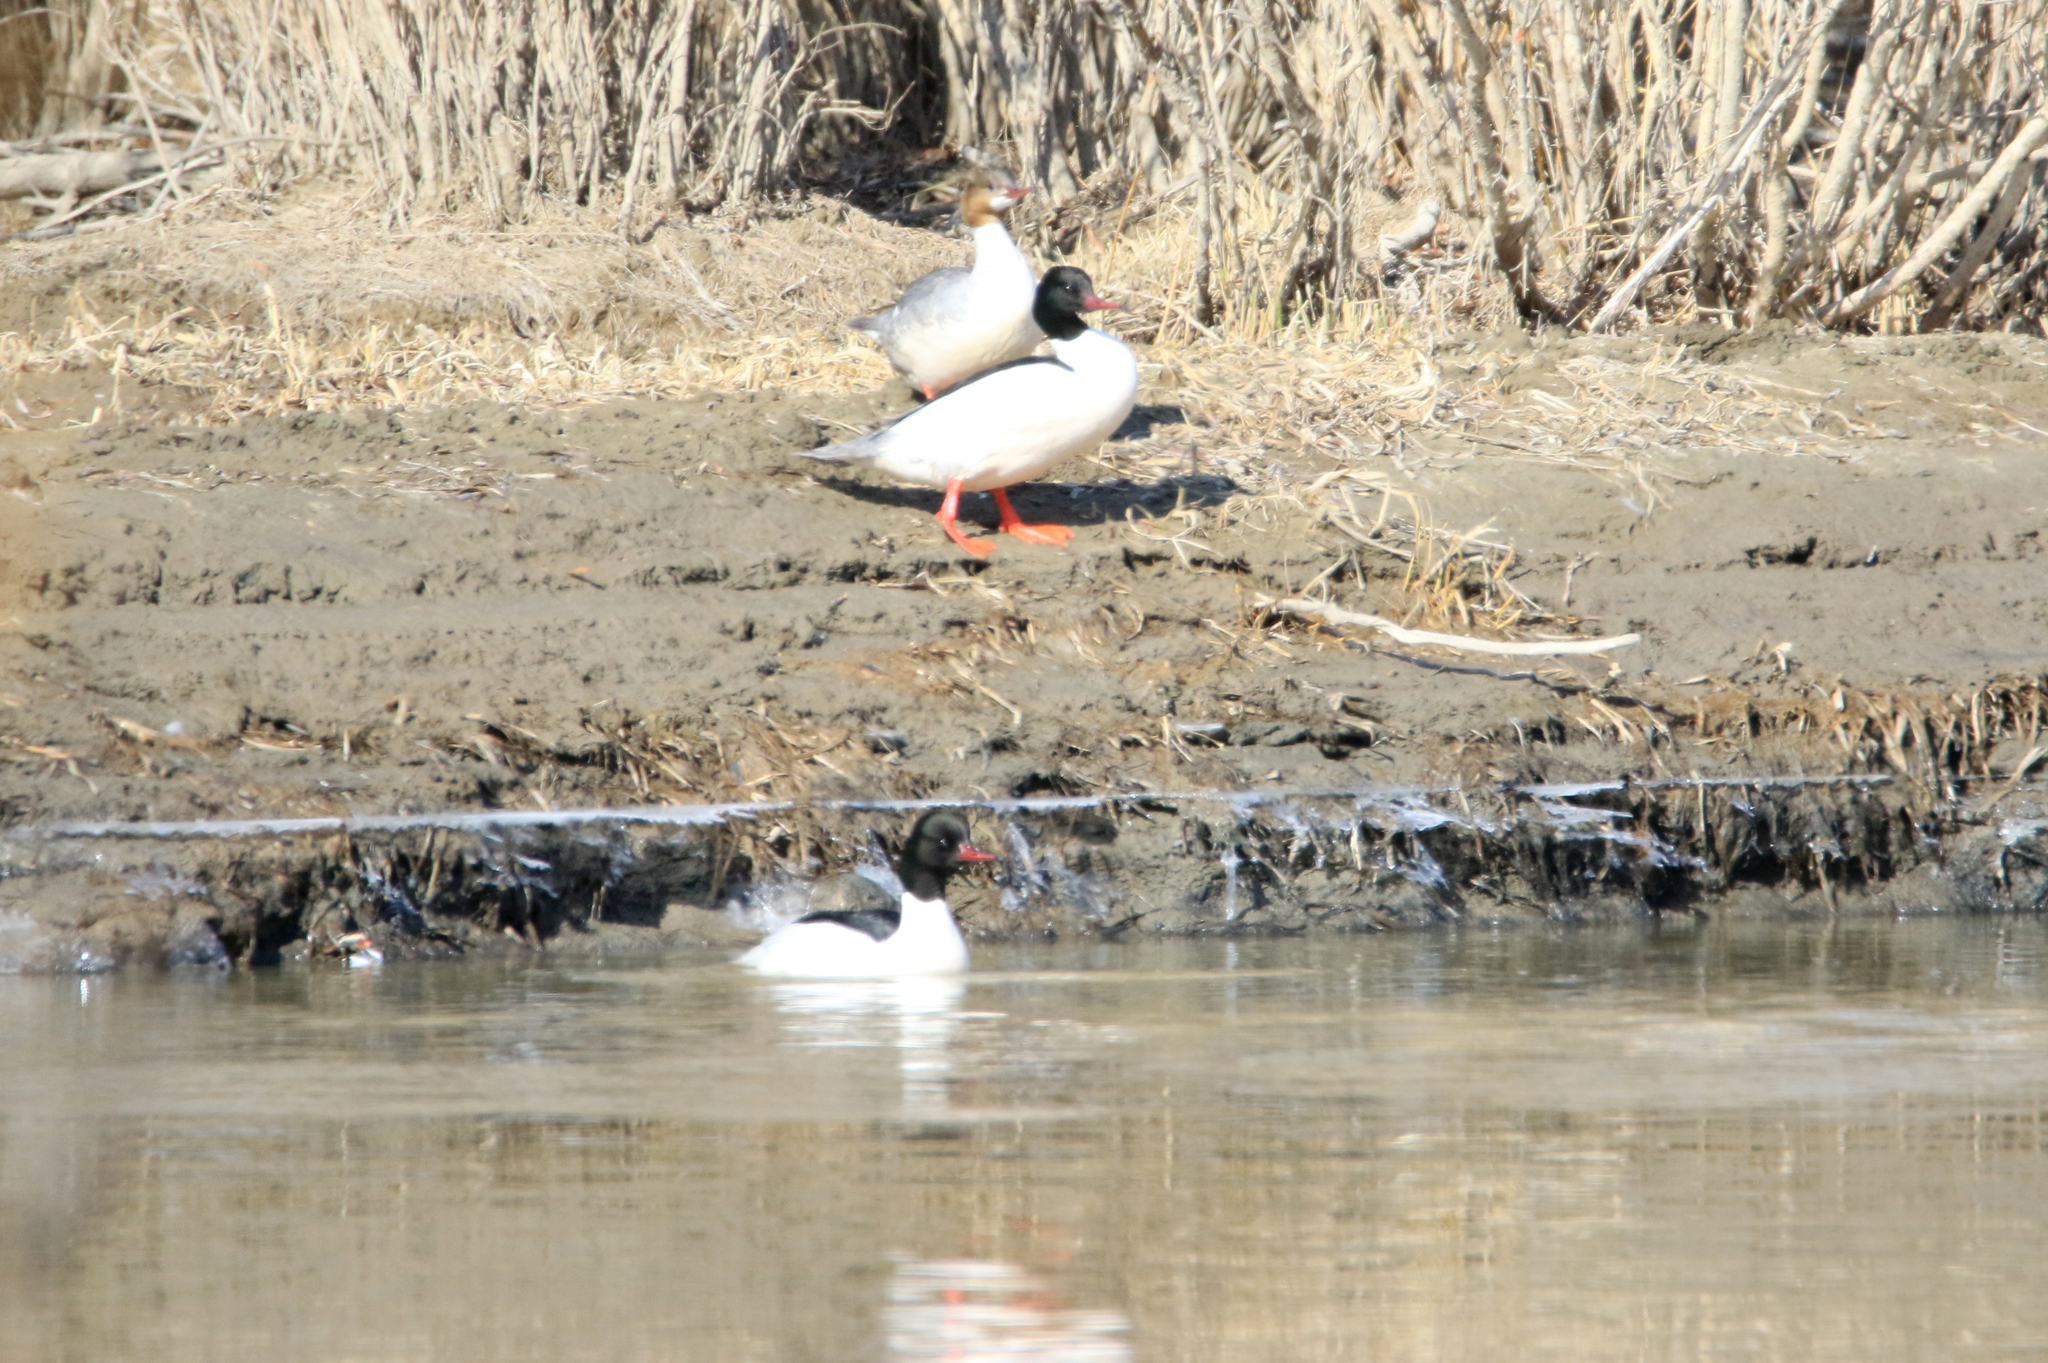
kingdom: Animalia
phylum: Chordata
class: Aves
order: Anseriformes
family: Anatidae
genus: Mergus
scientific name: Mergus merganser
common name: Common merganser
